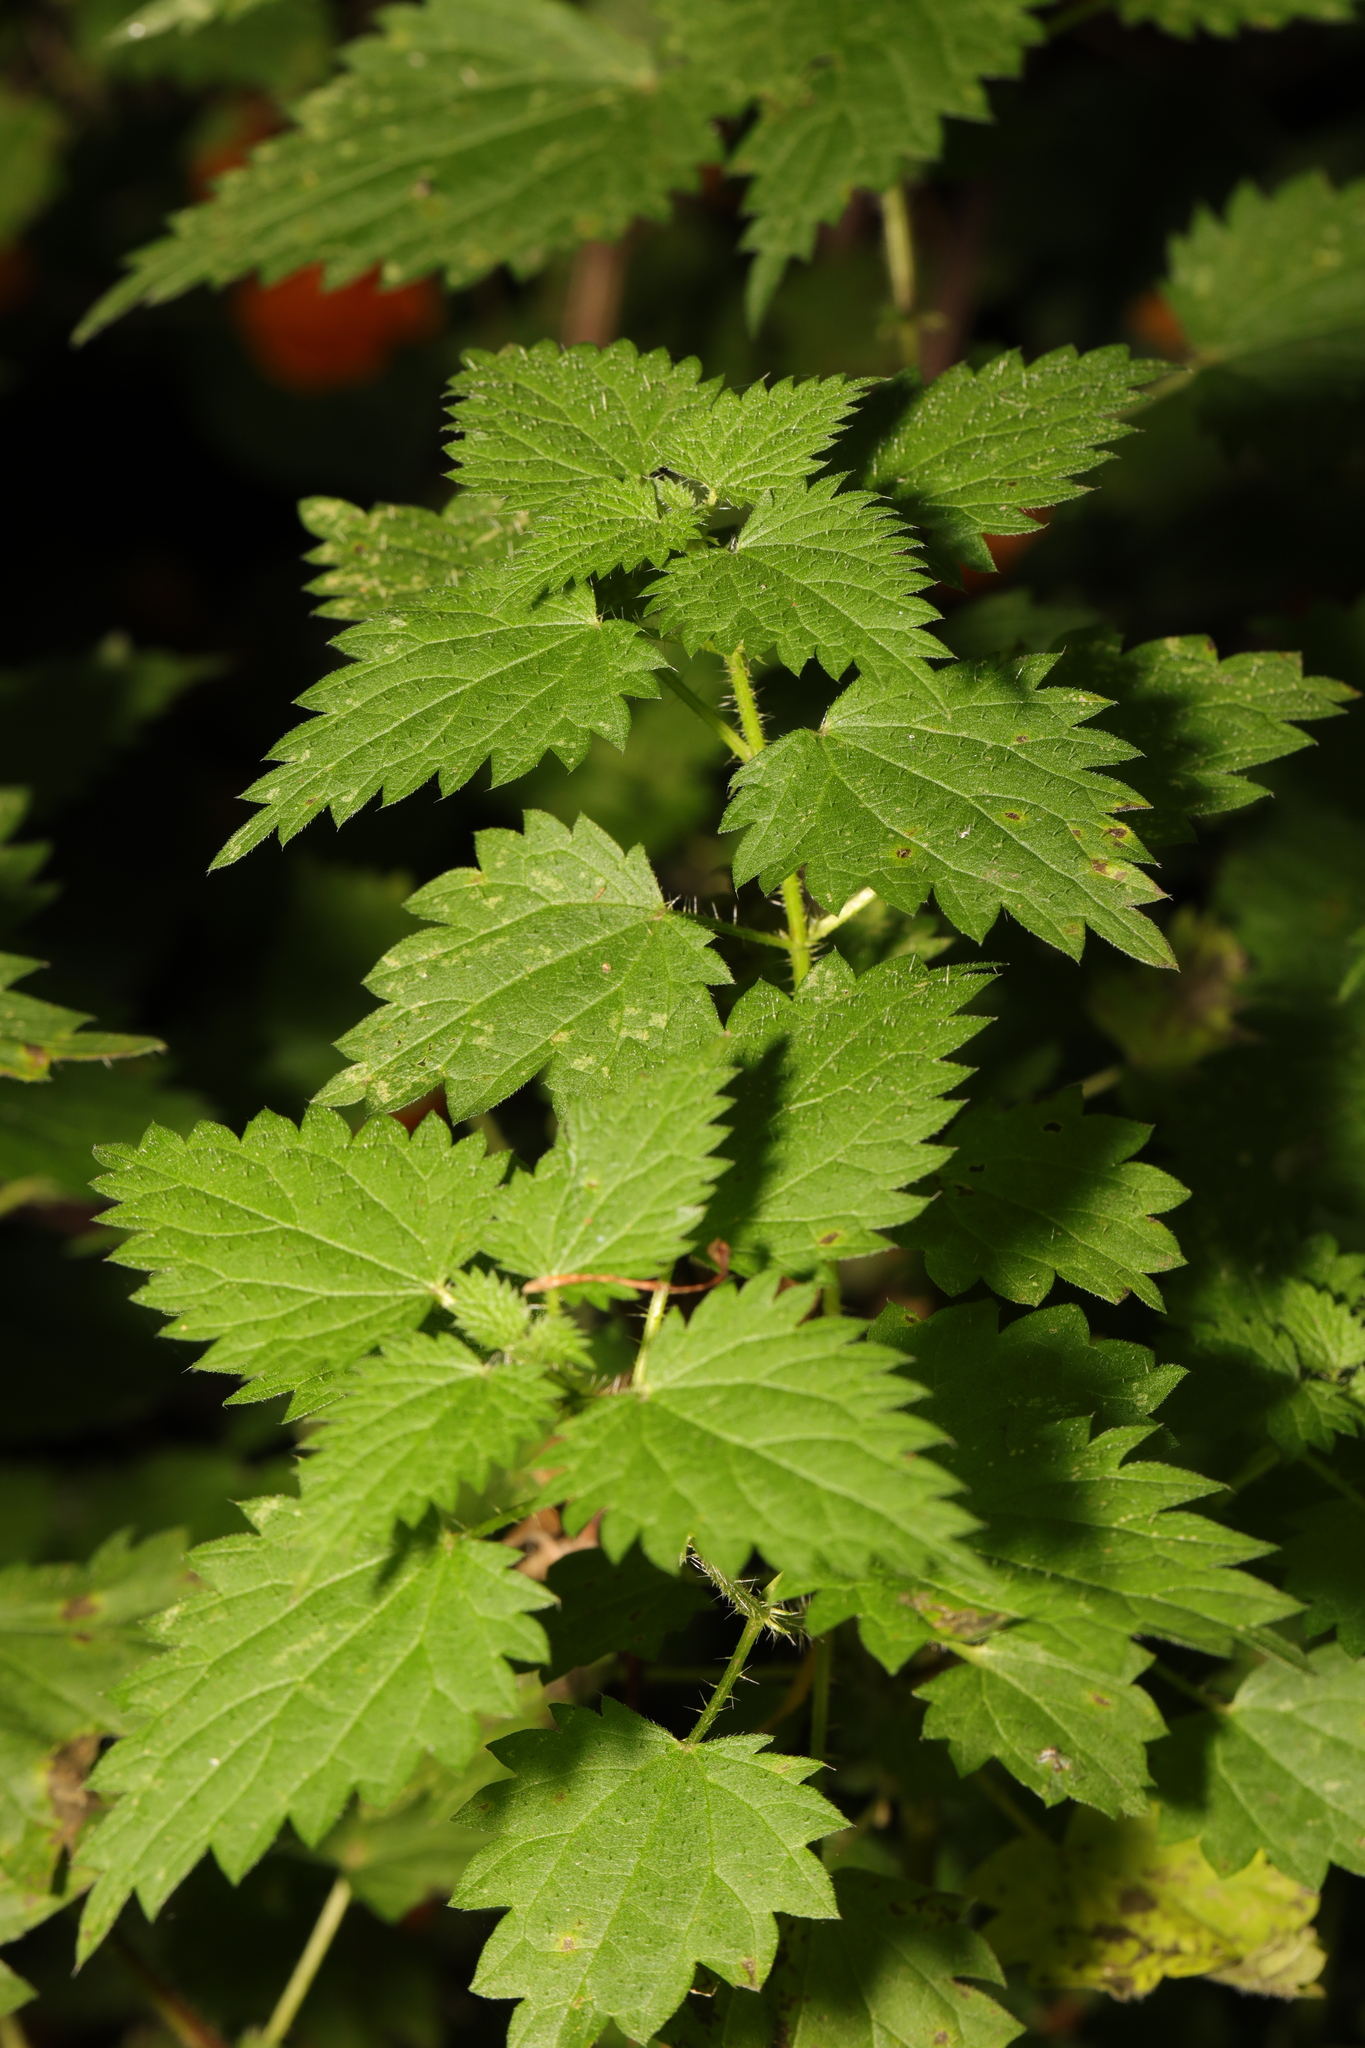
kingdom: Plantae
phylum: Tracheophyta
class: Magnoliopsida
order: Rosales
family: Urticaceae
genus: Urtica
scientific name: Urtica dioica
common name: Common nettle
